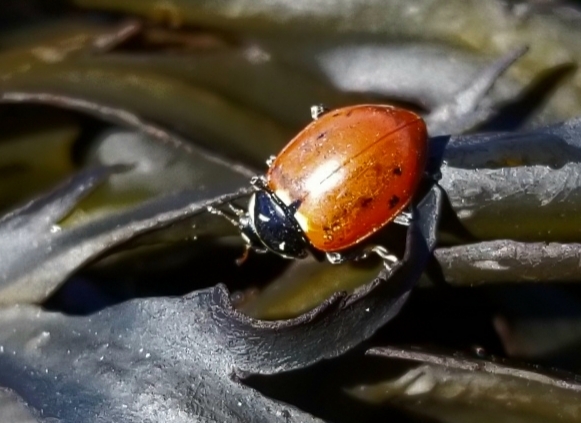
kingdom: Animalia
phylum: Arthropoda
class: Insecta
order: Coleoptera
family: Coccinellidae
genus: Hippodamia
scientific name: Hippodamia quinquesignata
